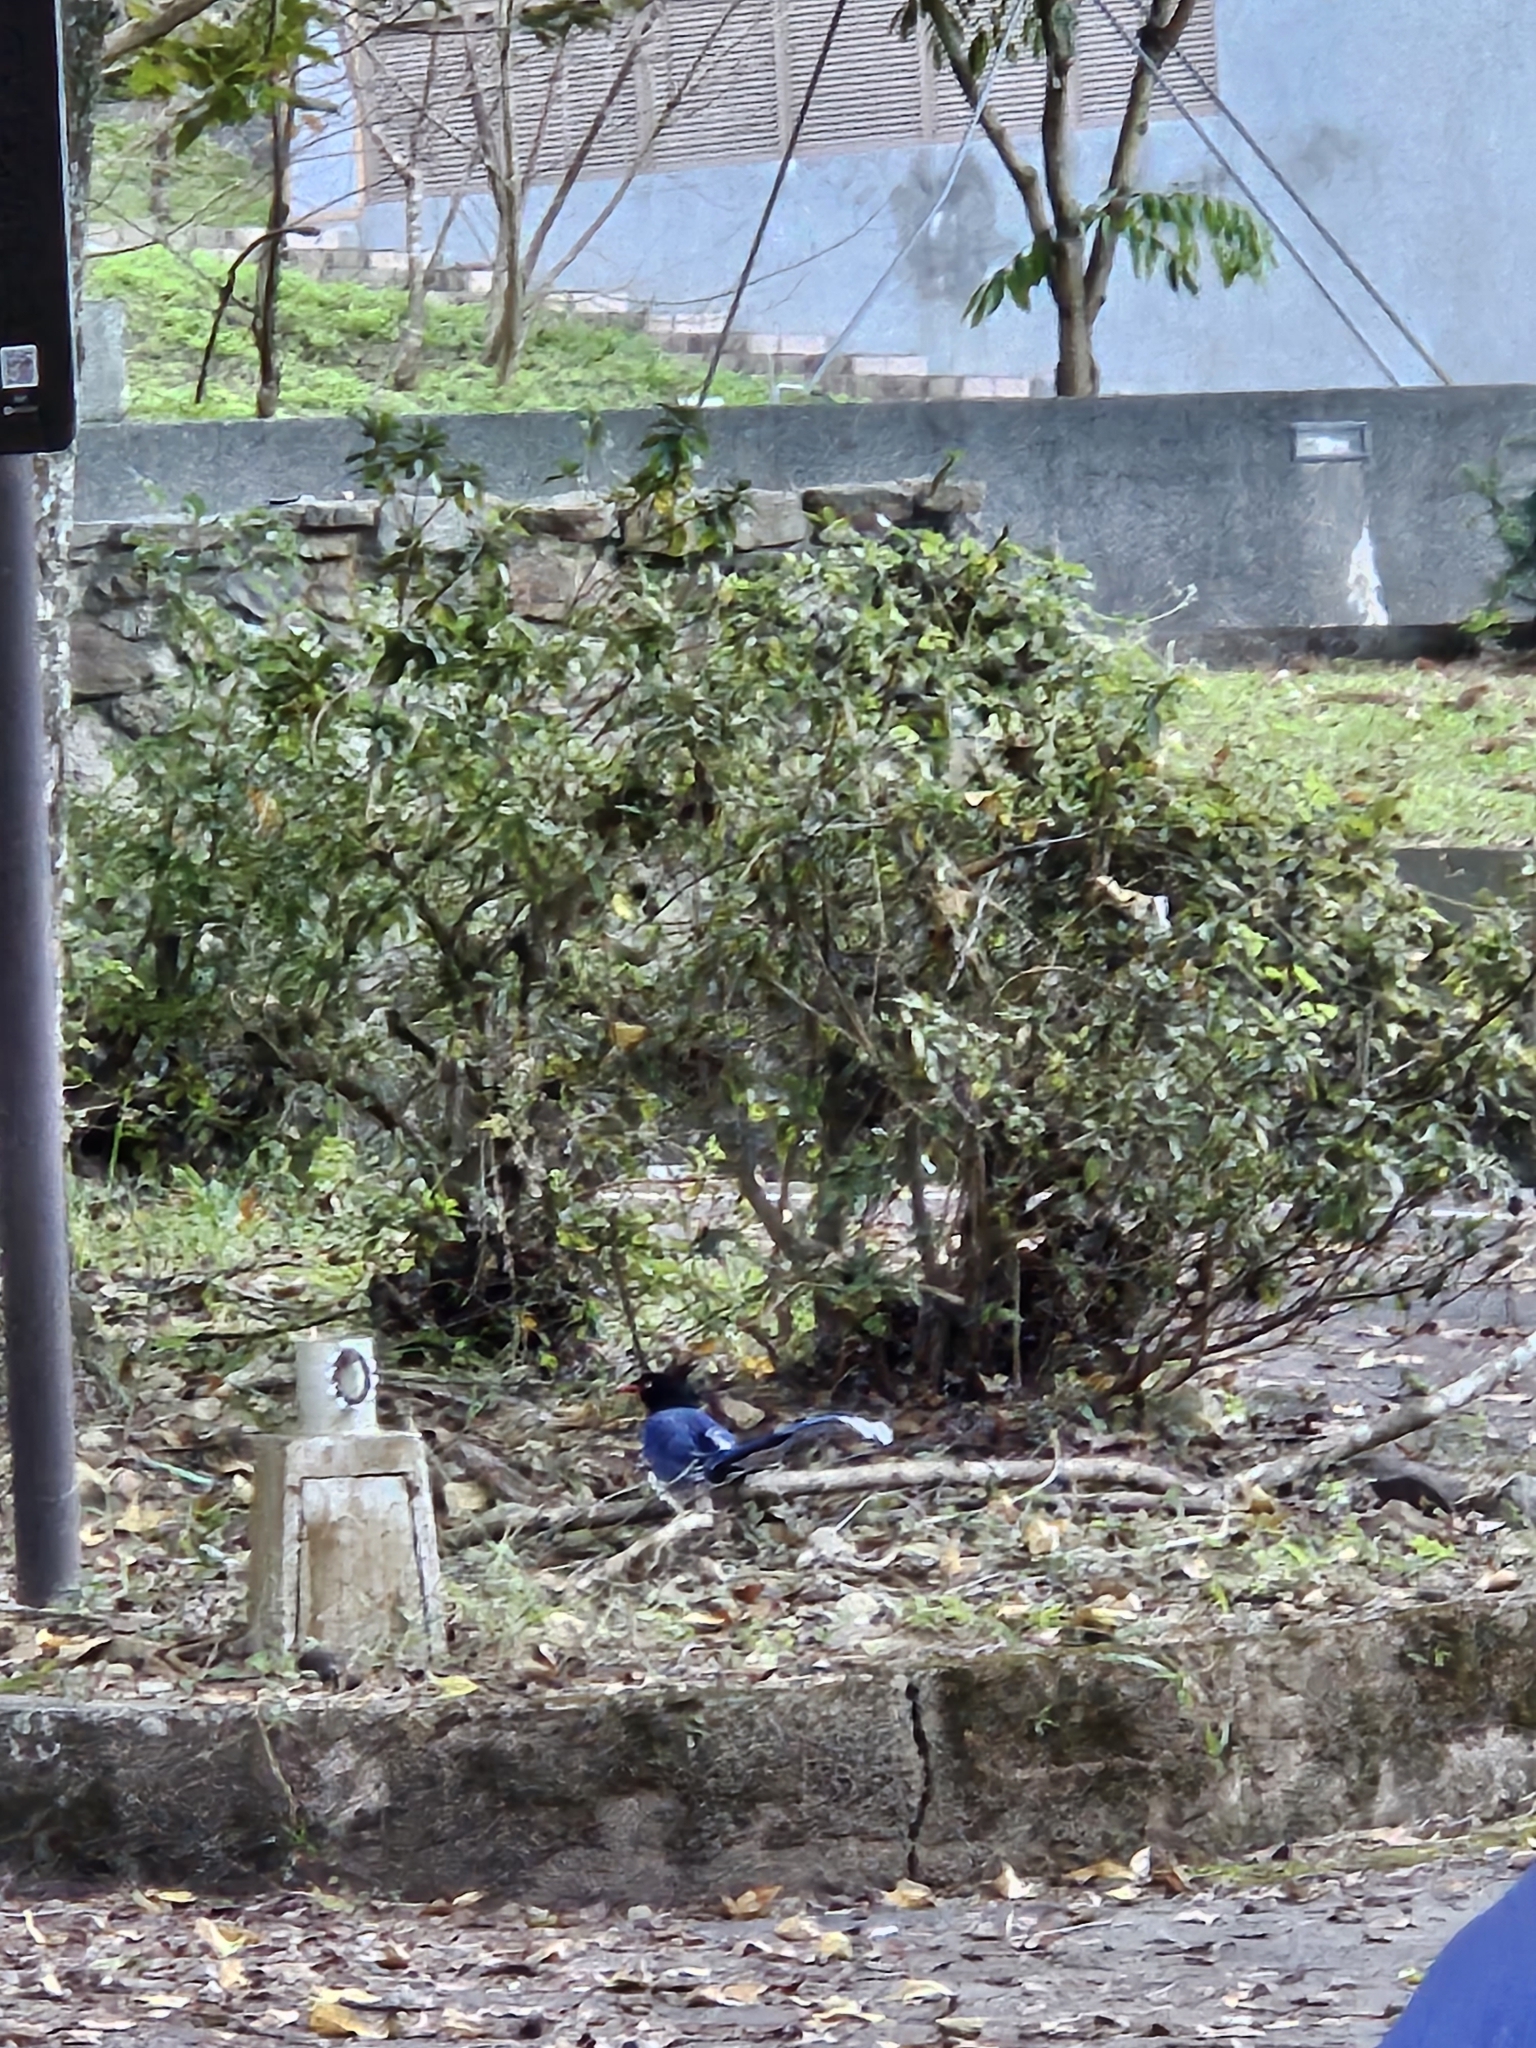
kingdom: Animalia
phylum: Chordata
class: Aves
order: Passeriformes
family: Corvidae
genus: Urocissa
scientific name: Urocissa caerulea
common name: Taiwan blue magpie
